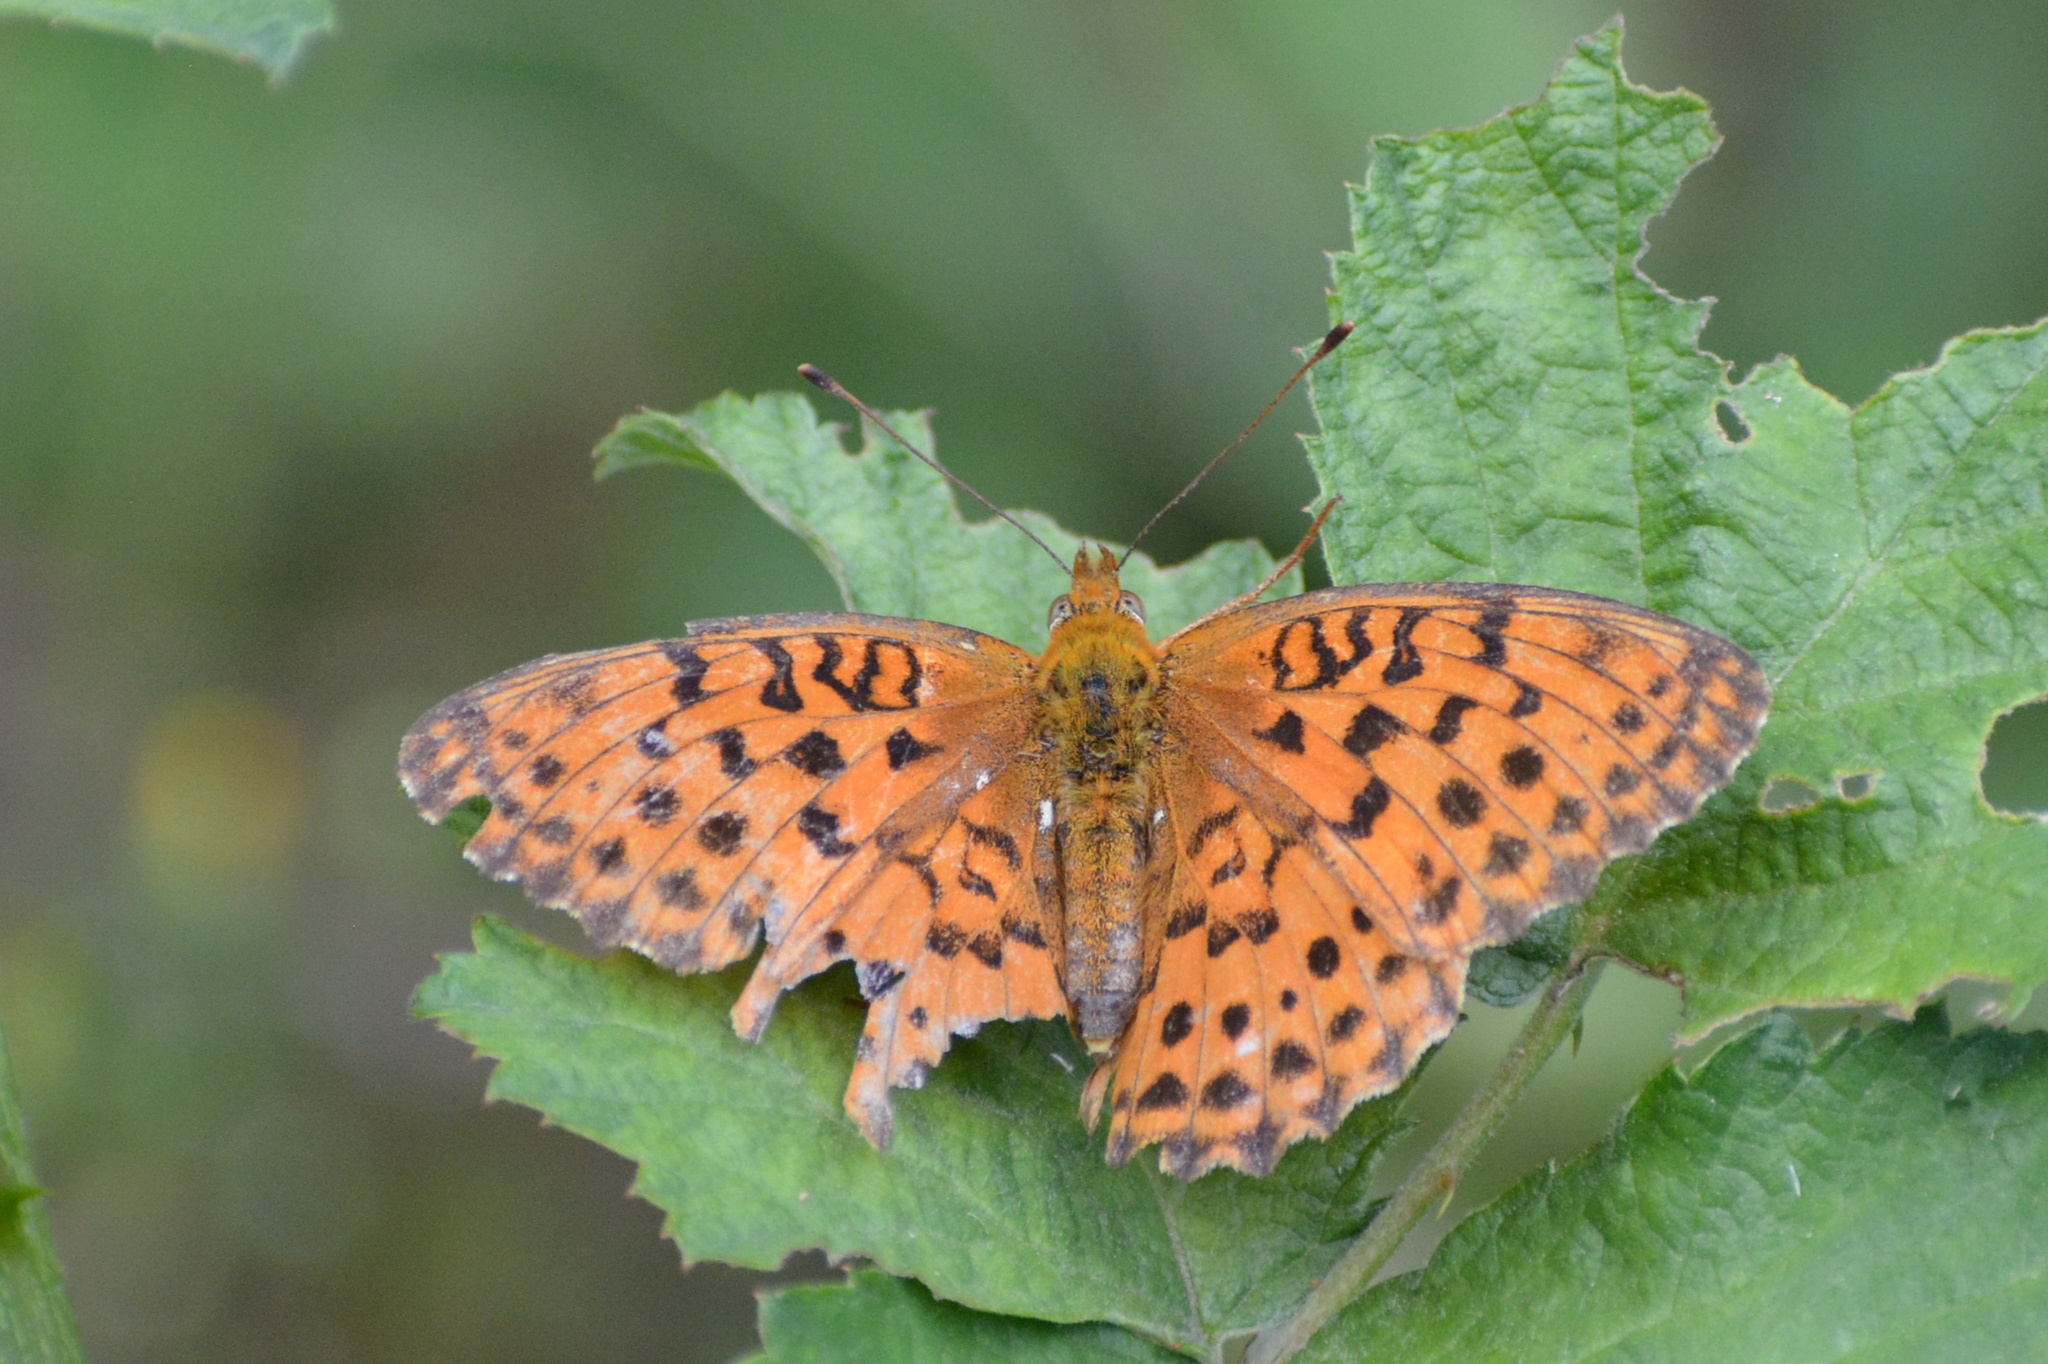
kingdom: Animalia
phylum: Arthropoda
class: Insecta
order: Lepidoptera
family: Nymphalidae
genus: Brenthis
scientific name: Brenthis daphne
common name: Marbled fritillary
